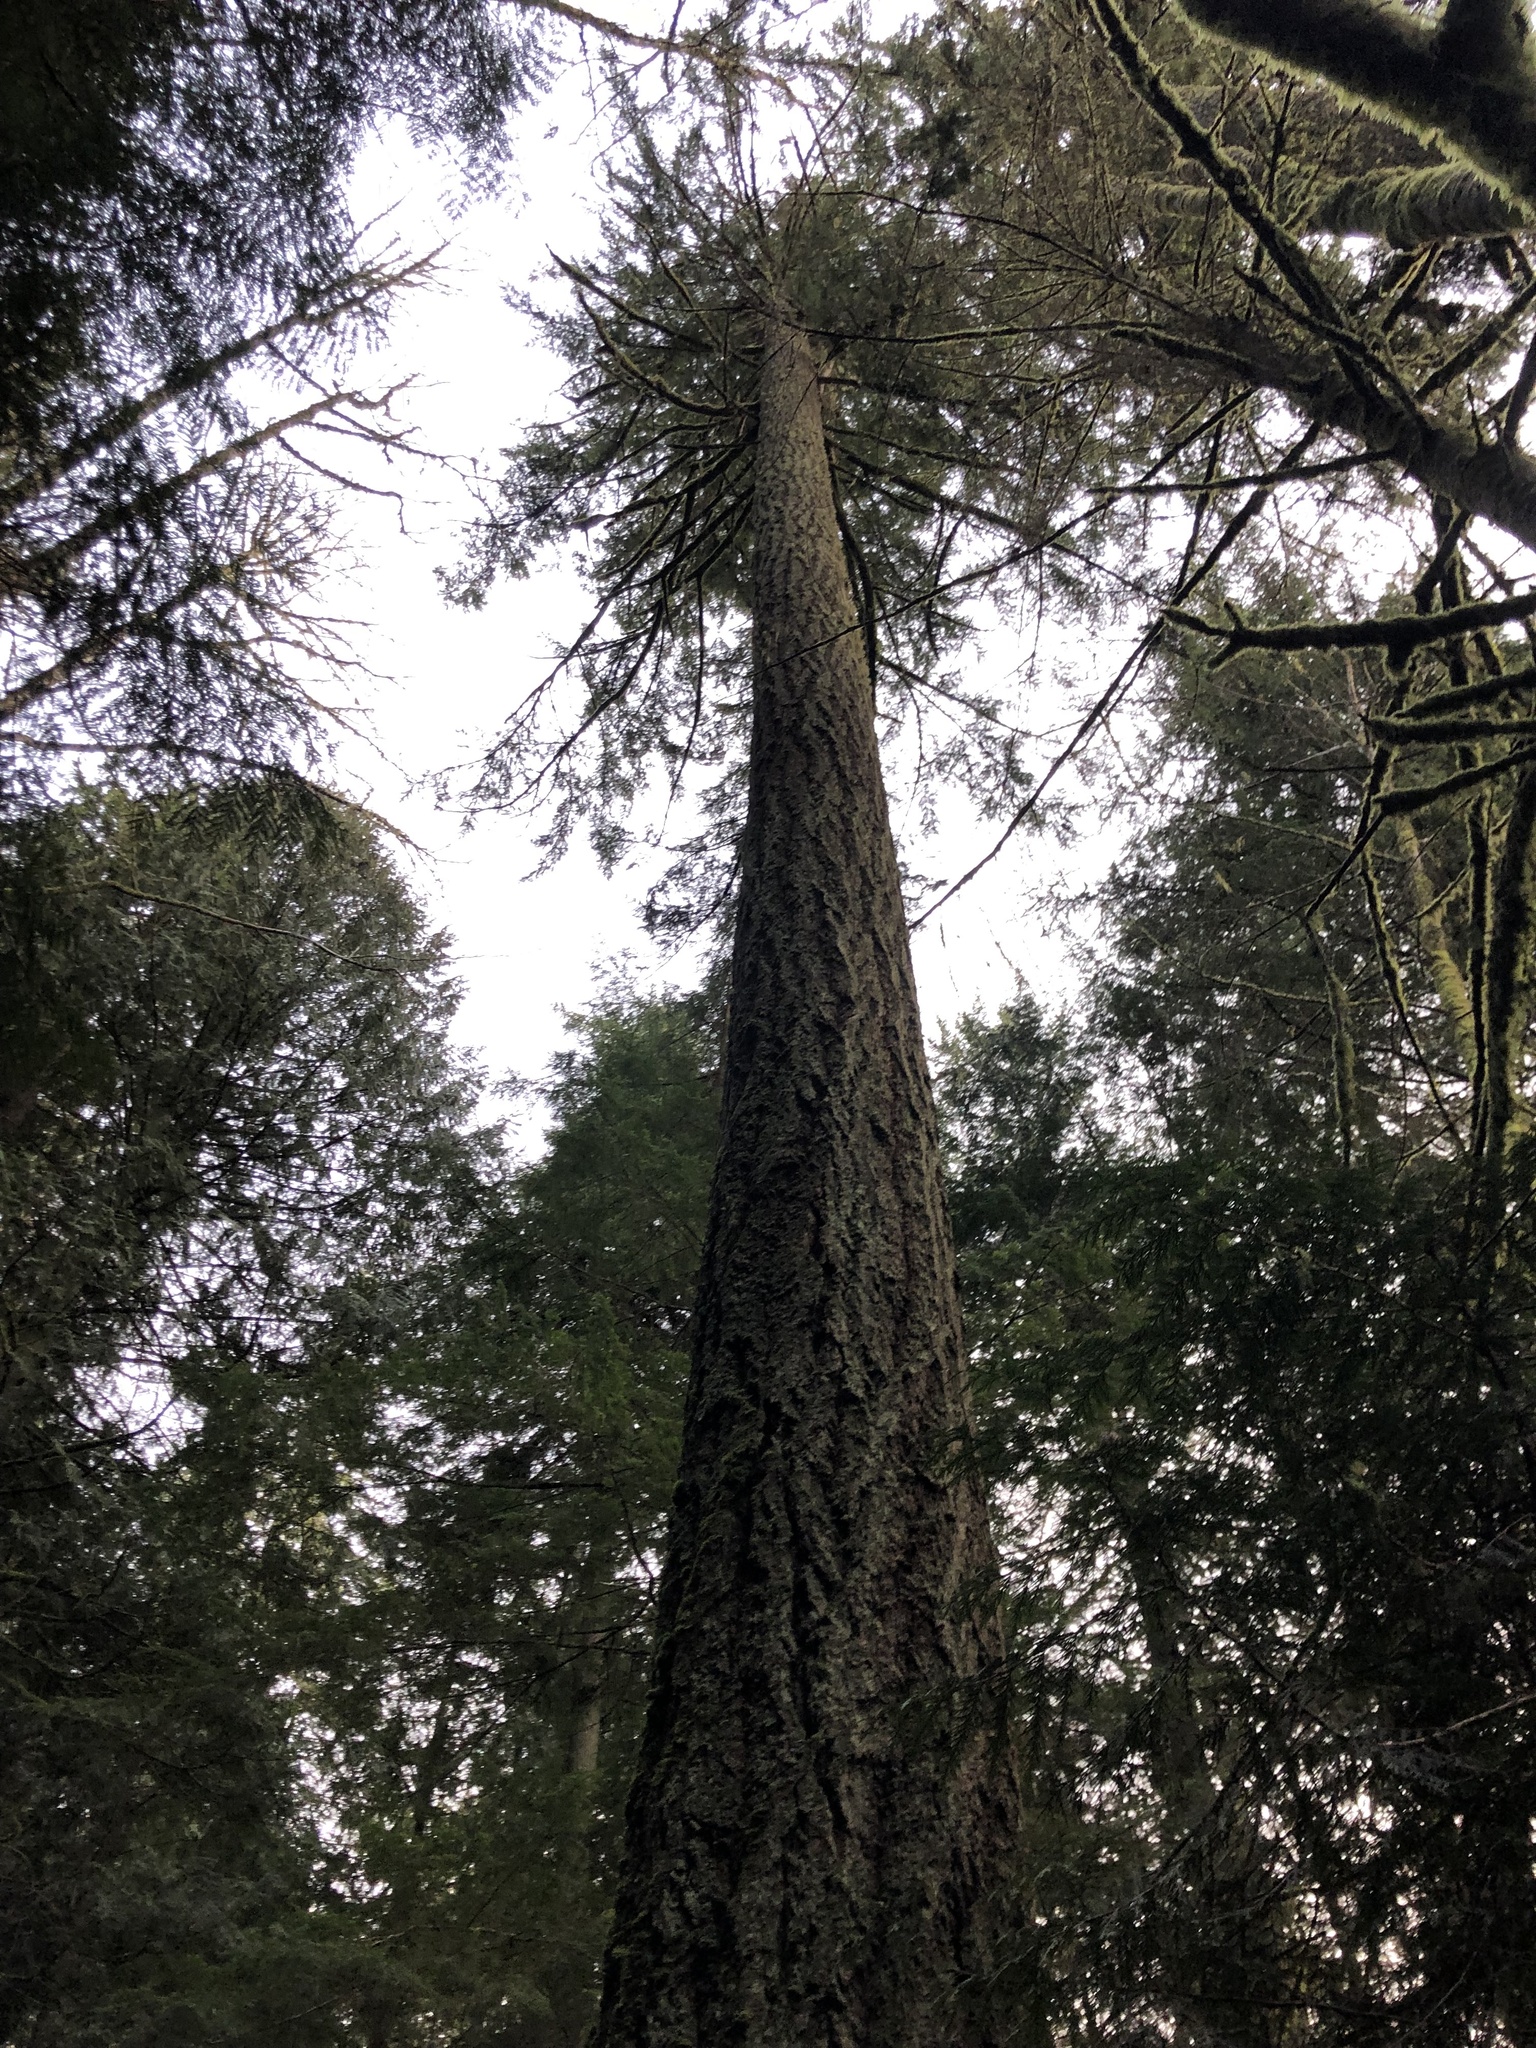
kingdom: Plantae
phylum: Tracheophyta
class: Pinopsida
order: Pinales
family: Pinaceae
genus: Pseudotsuga
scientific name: Pseudotsuga menziesii
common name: Douglas fir
